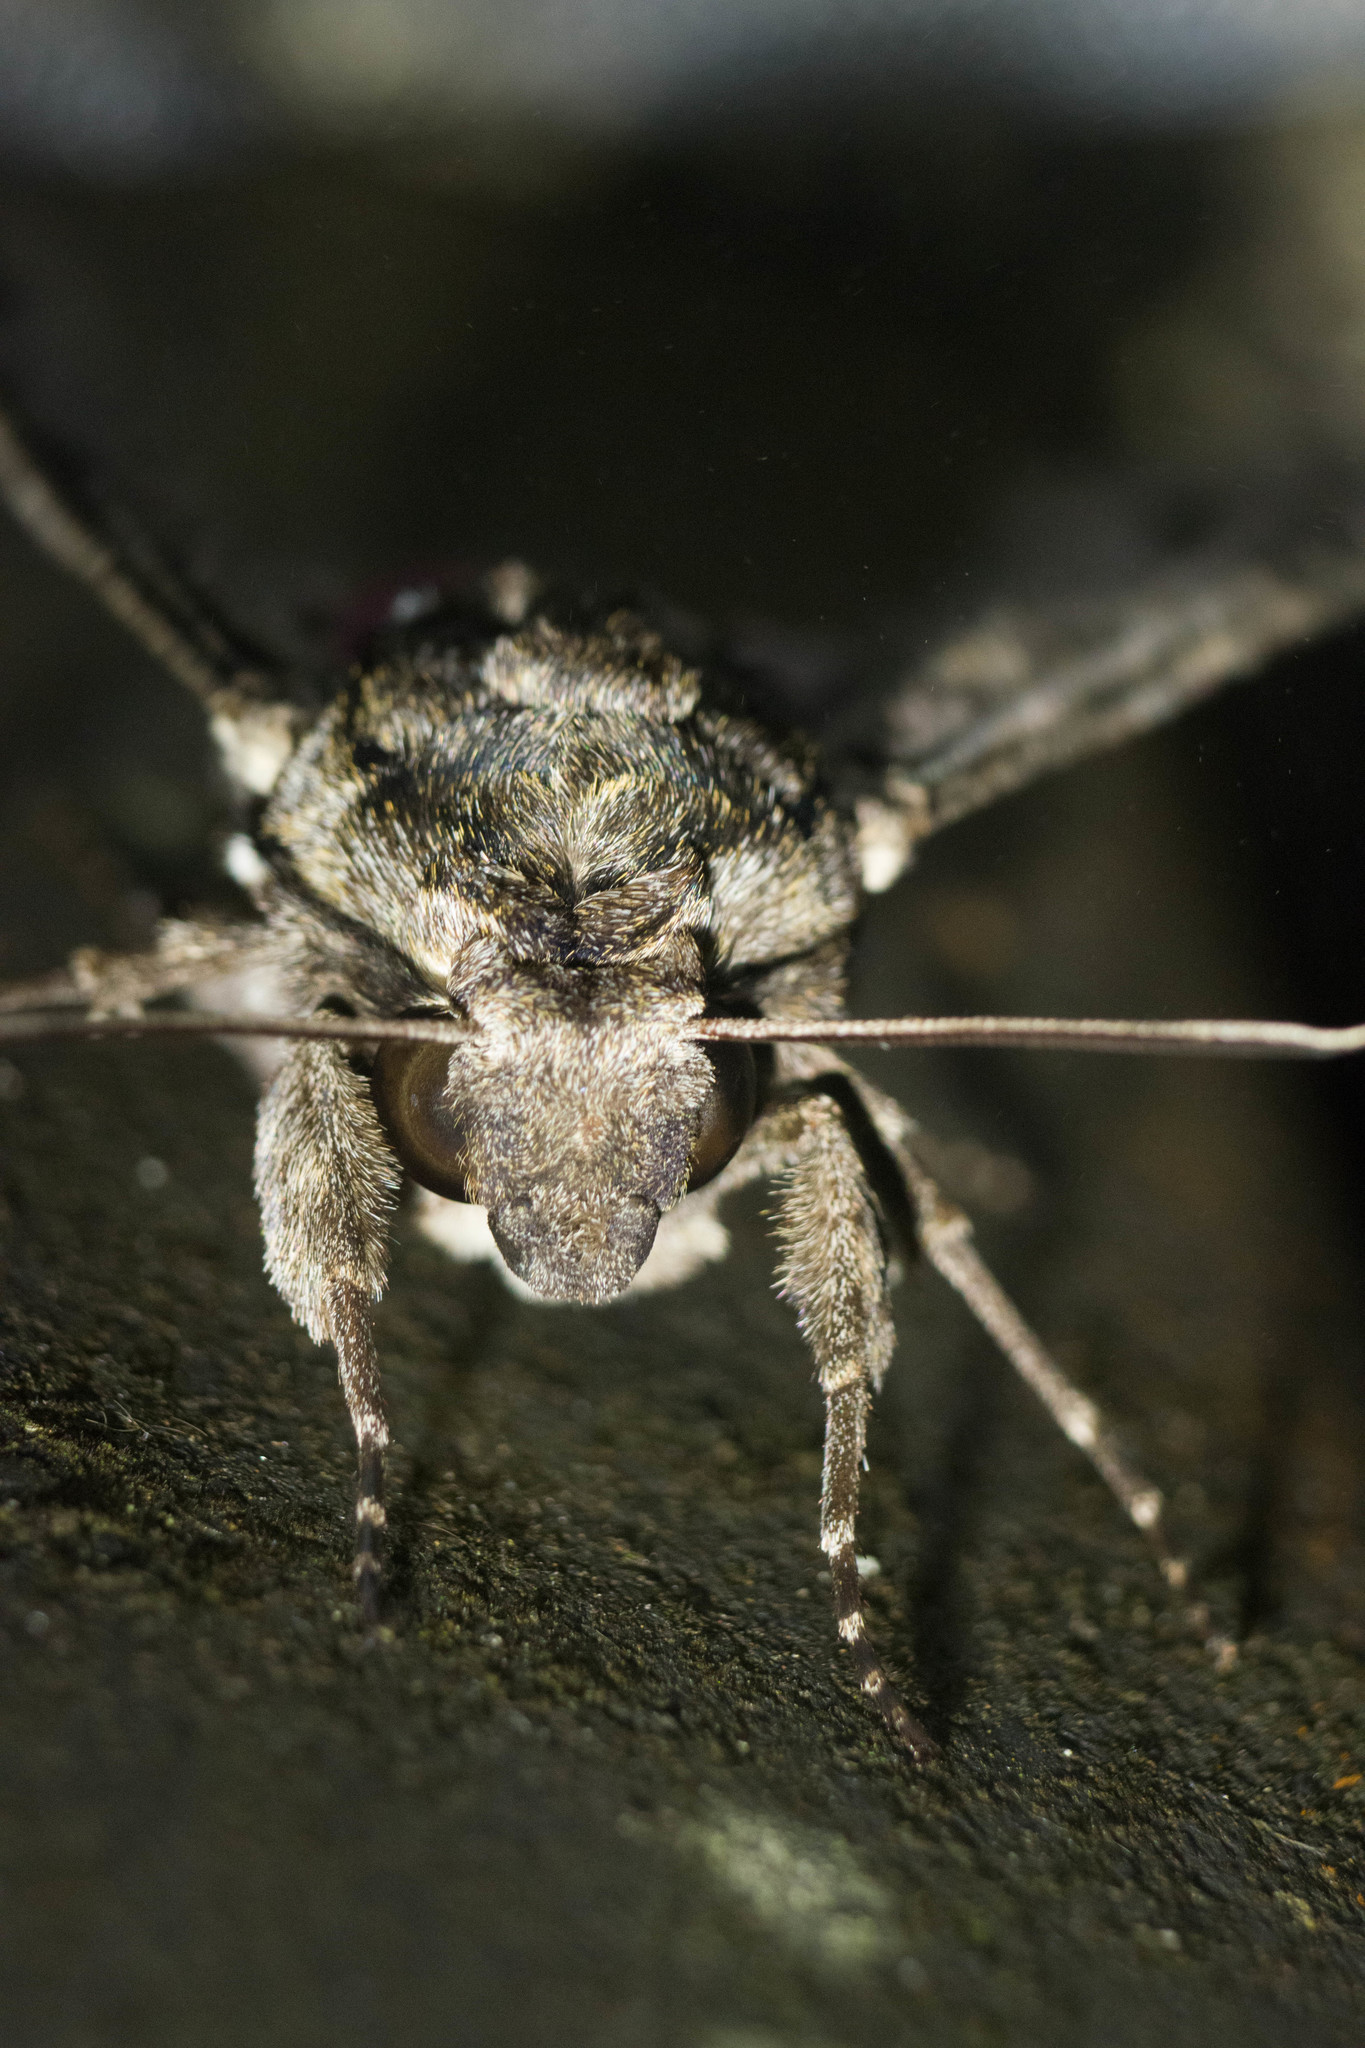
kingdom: Animalia
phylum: Arthropoda
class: Insecta
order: Lepidoptera
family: Sphingidae
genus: Agrius
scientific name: Agrius cingulata
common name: Pink-spotted hawkmoth
